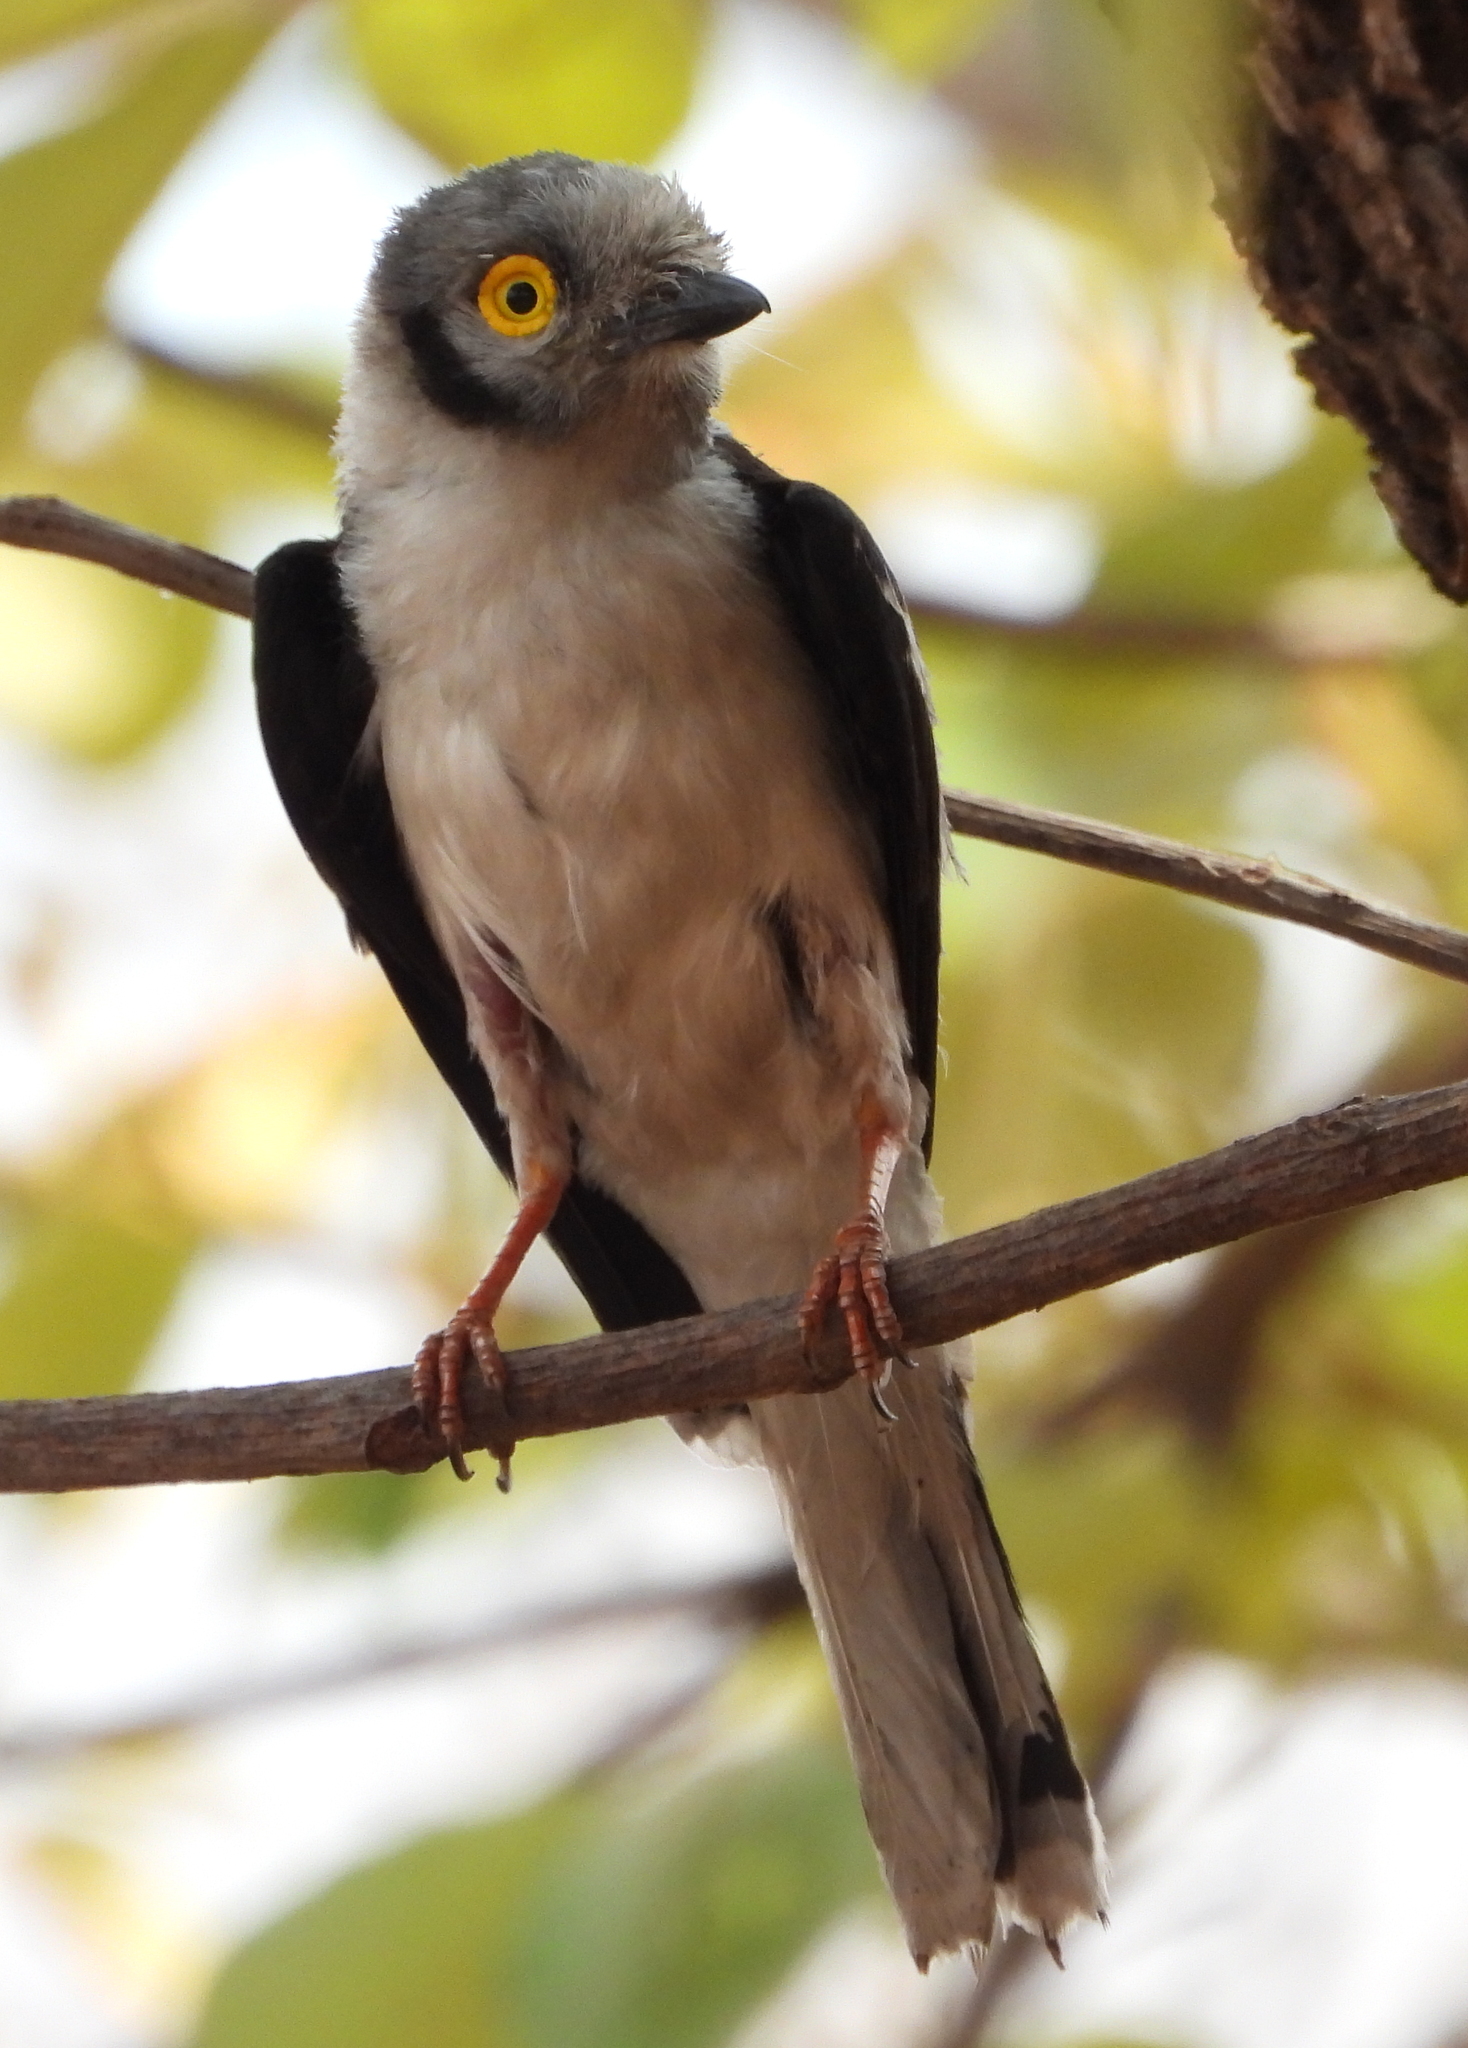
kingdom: Animalia
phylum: Chordata
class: Aves
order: Passeriformes
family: Prionopidae
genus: Prionops
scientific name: Prionops plumatus
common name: White-crested helmetshrike
